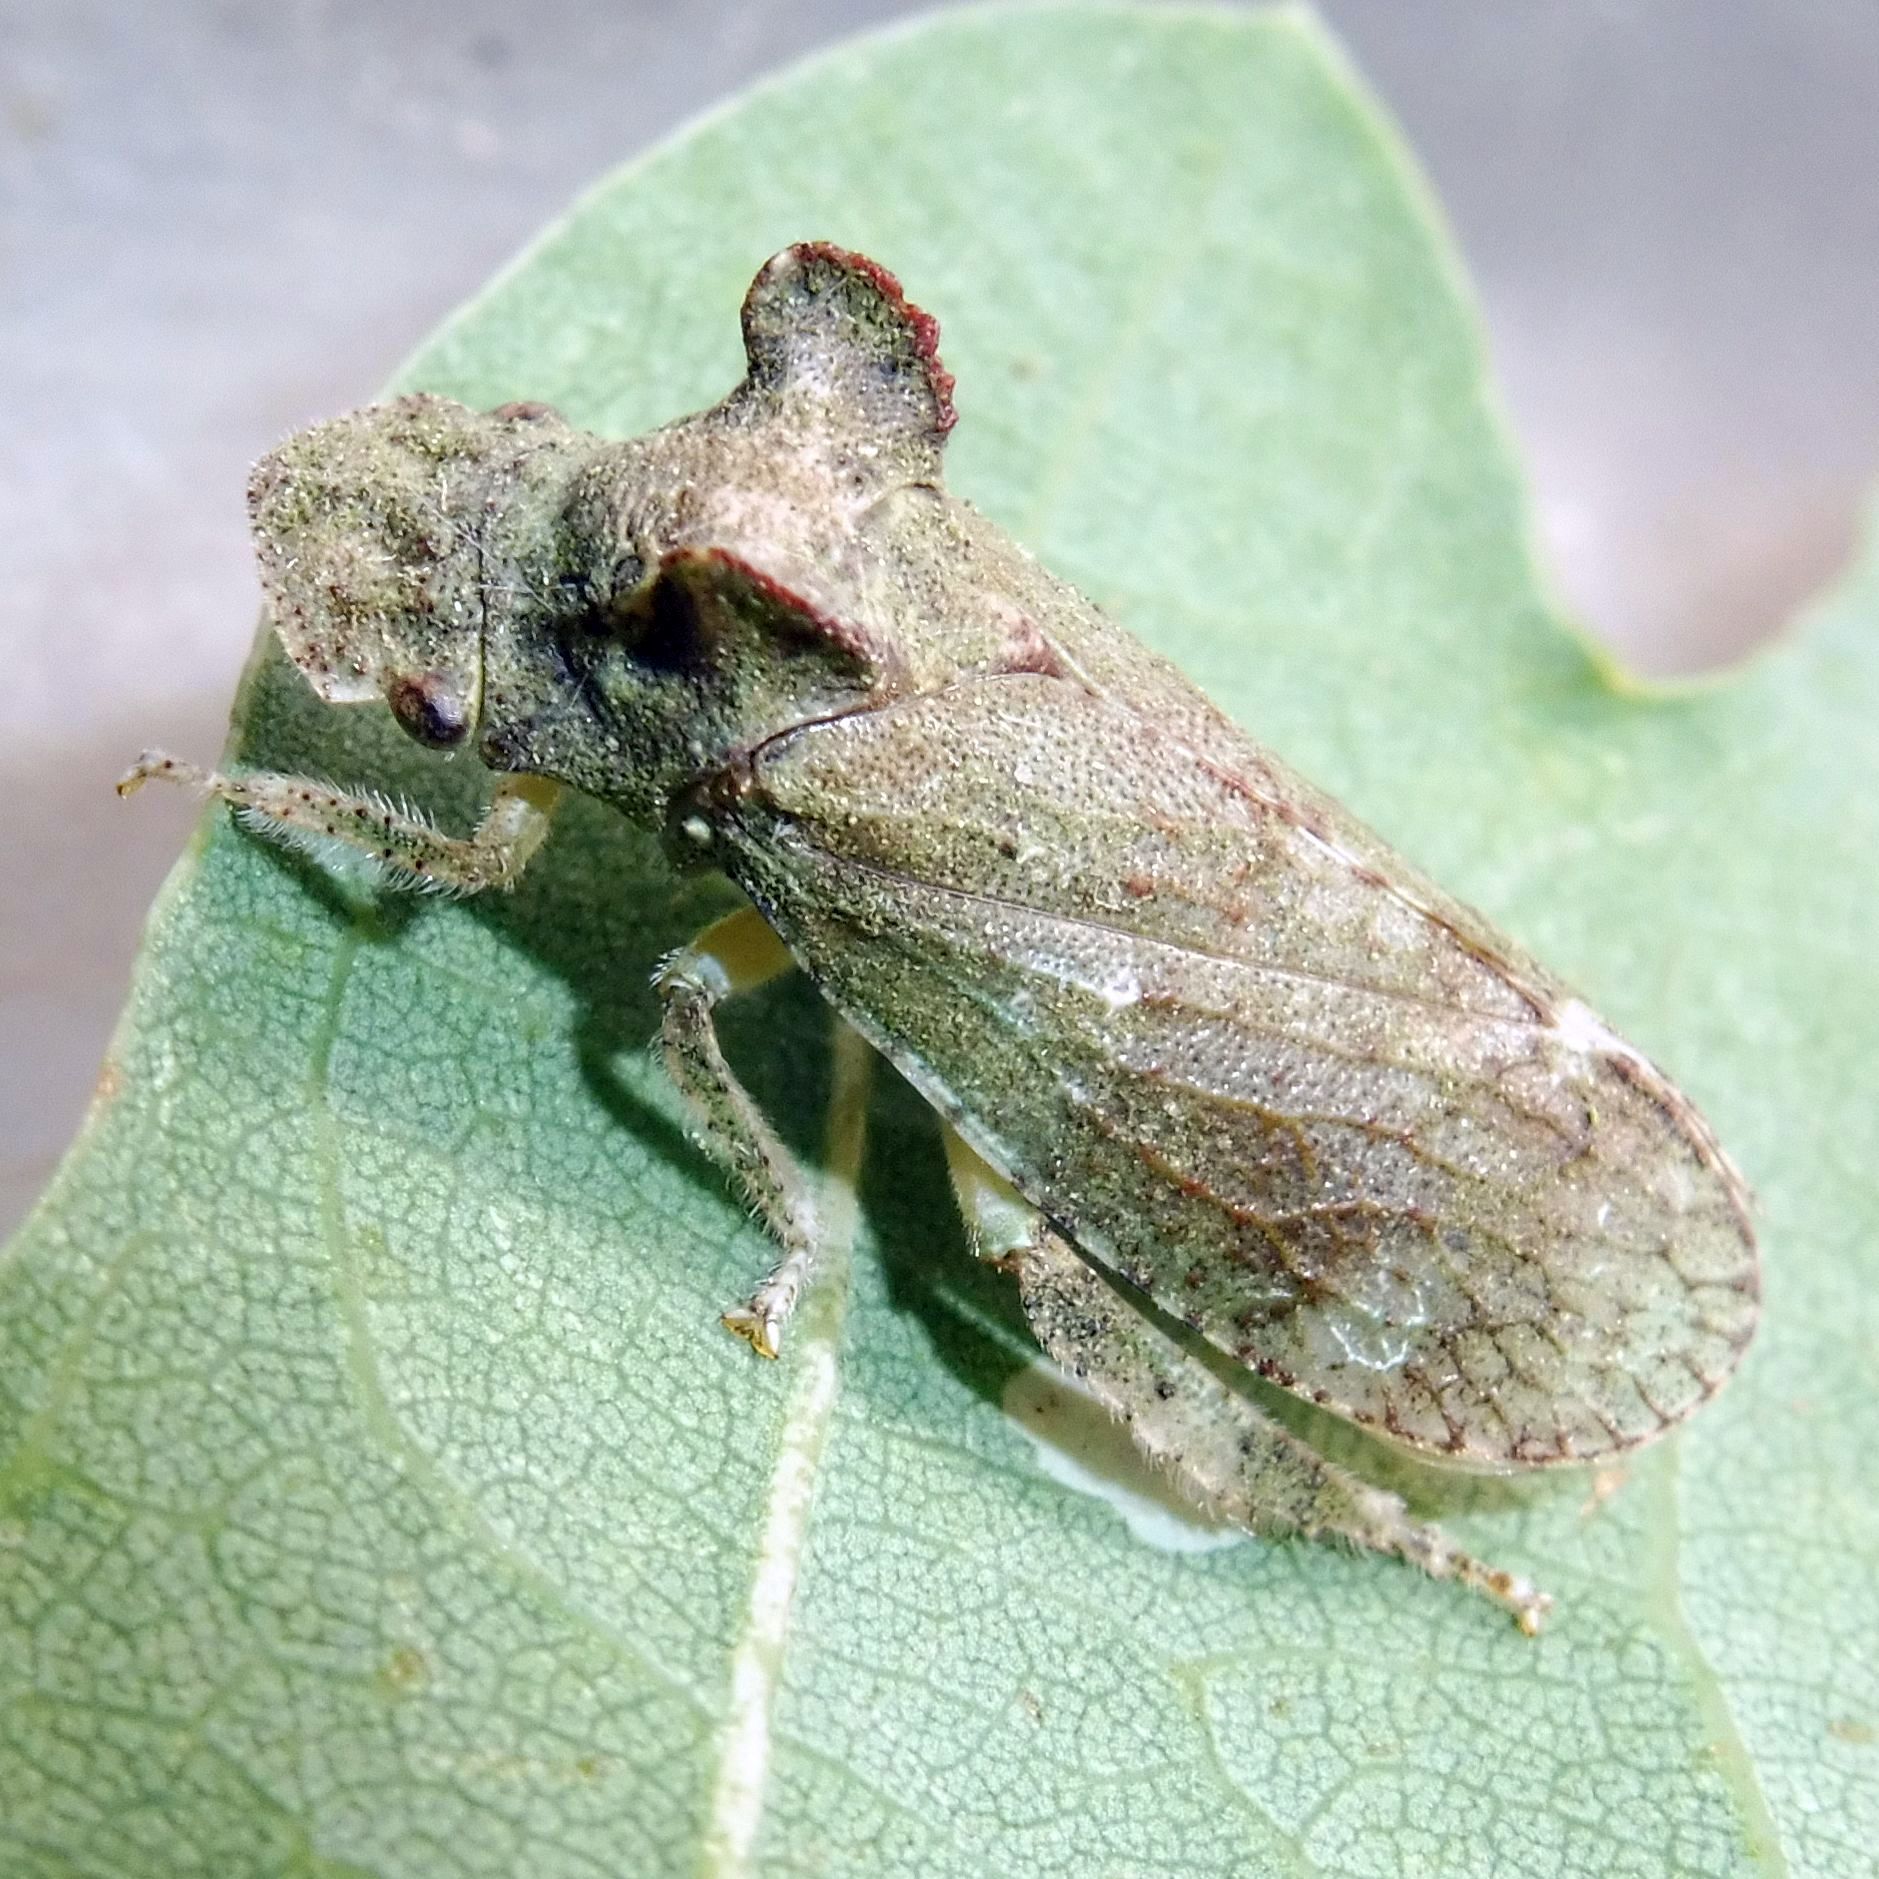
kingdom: Animalia
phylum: Arthropoda
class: Insecta
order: Hemiptera
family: Cicadellidae
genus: Ledra
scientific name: Ledra aurita
